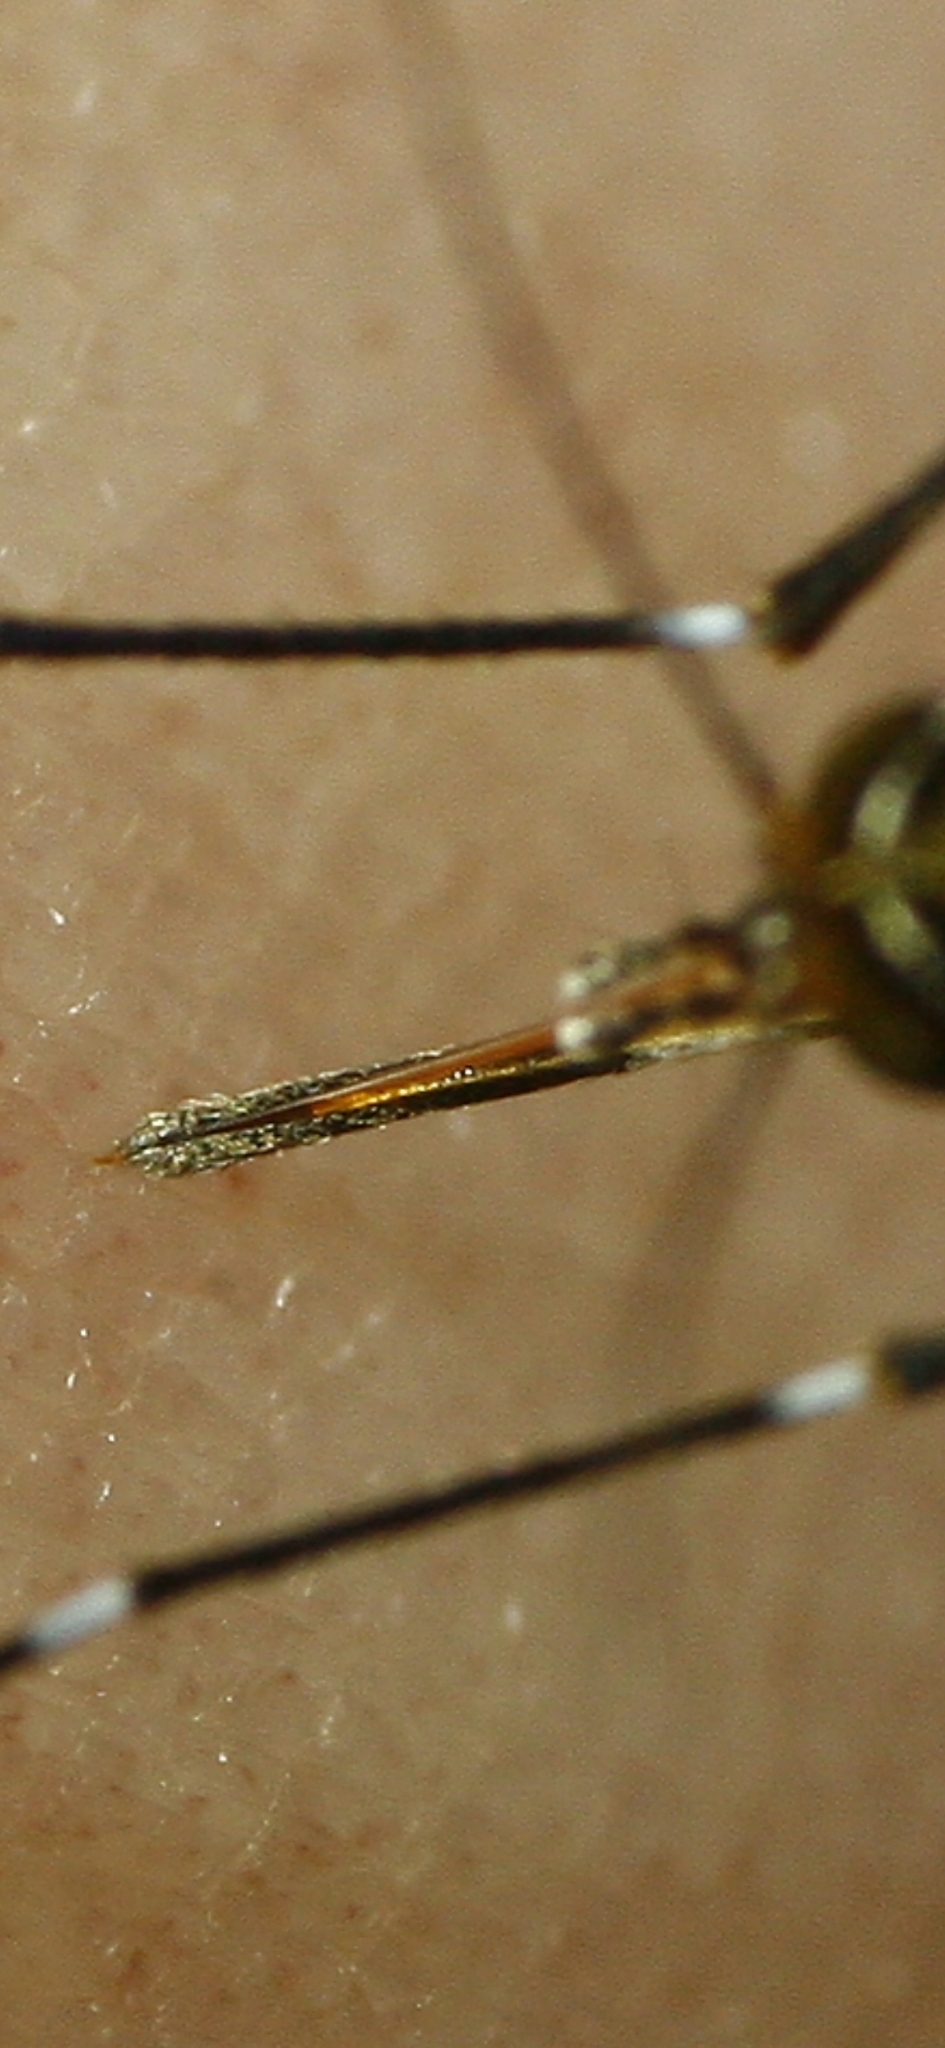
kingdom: Animalia
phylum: Arthropoda
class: Insecta
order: Diptera
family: Culicidae
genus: Aedes
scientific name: Aedes notoscriptus
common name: Australian backyard mosquito
